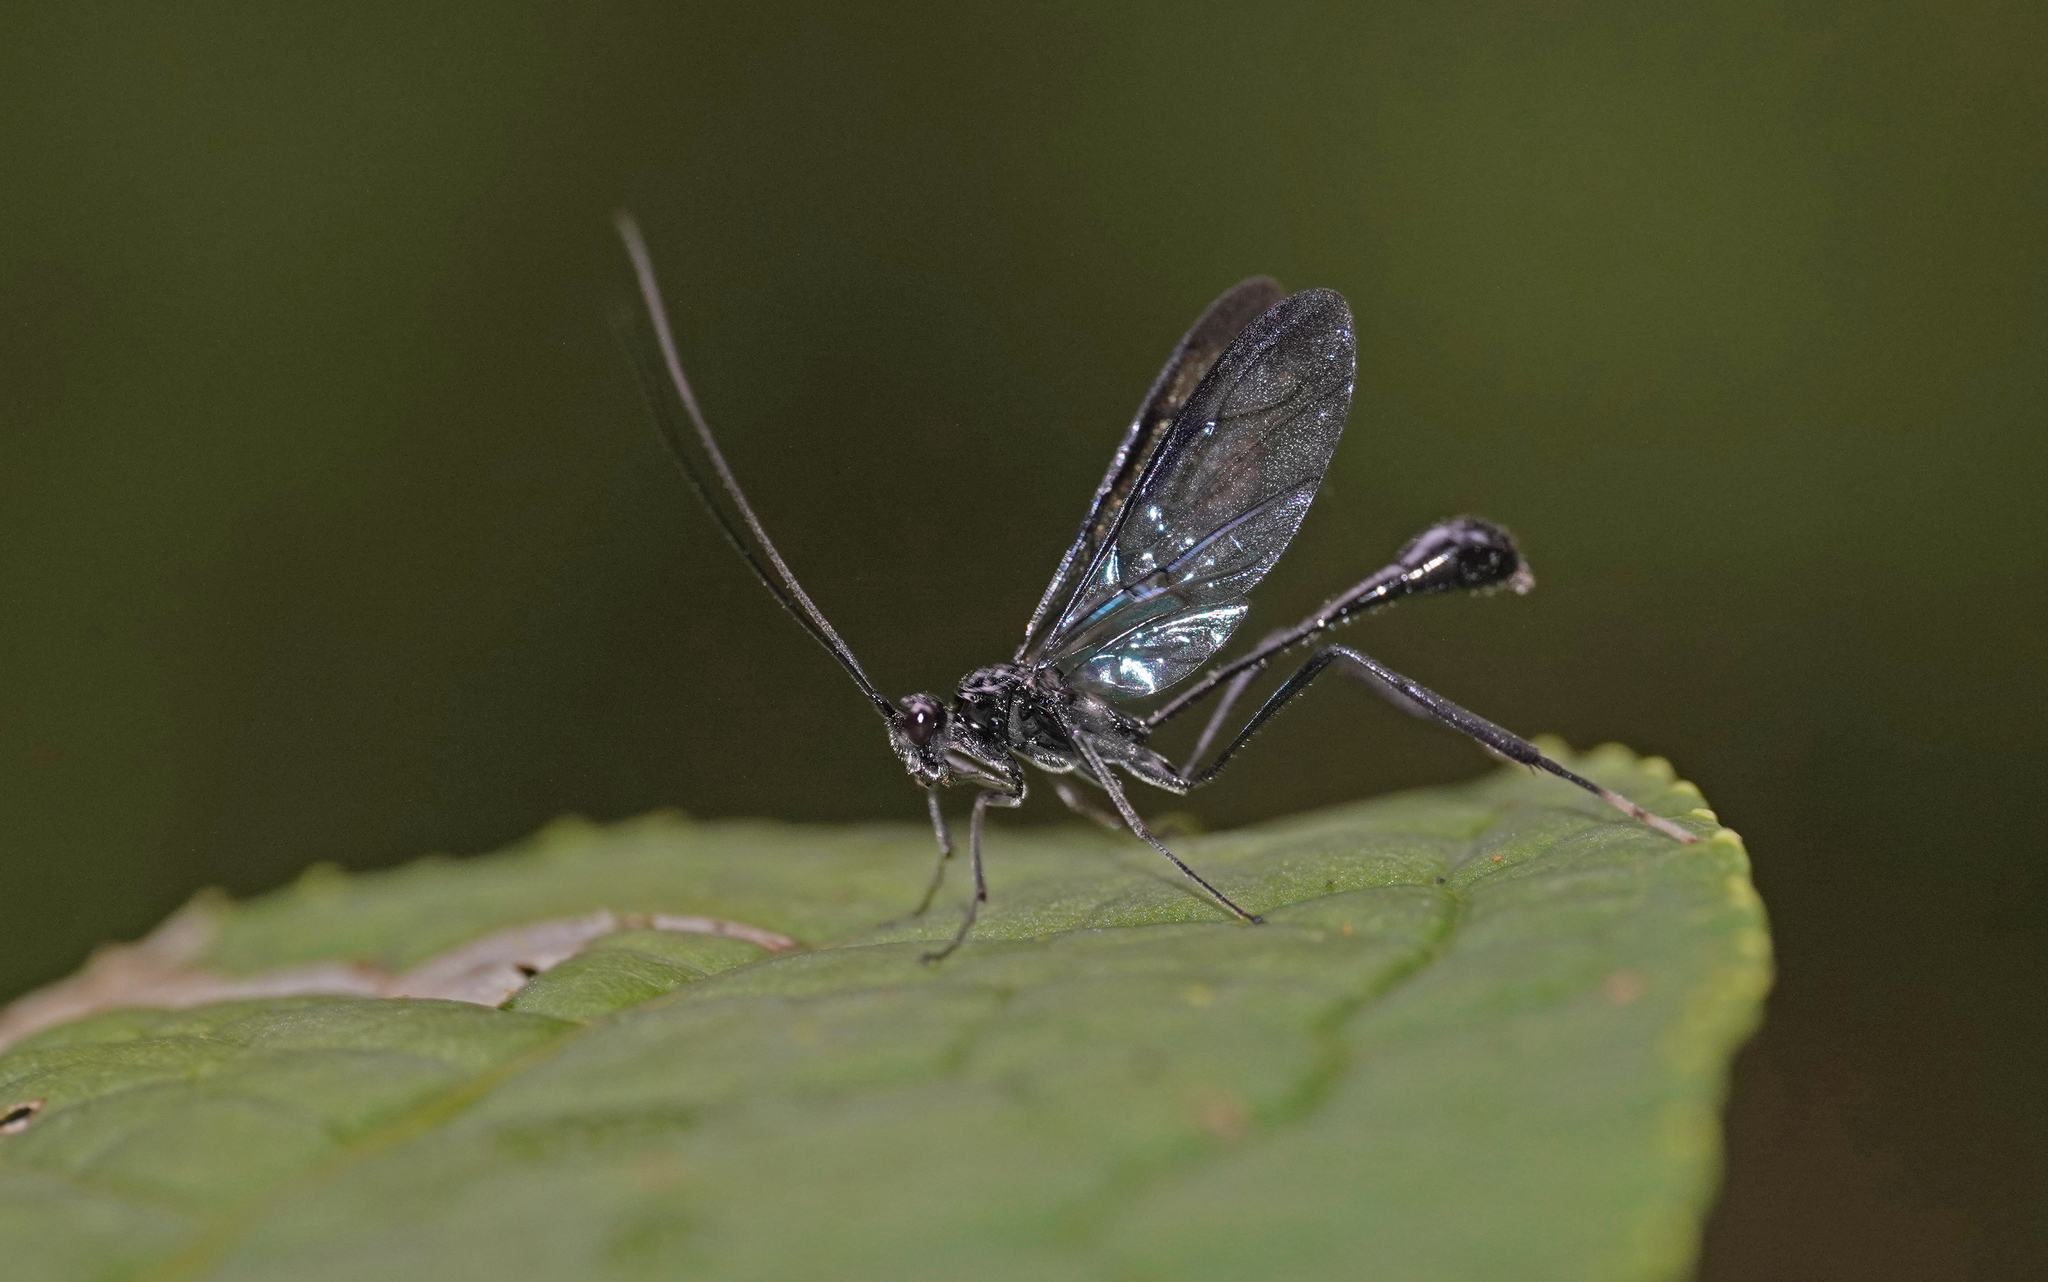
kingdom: Animalia
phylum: Arthropoda
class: Insecta
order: Hymenoptera
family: Pelecinidae
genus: Pelecinus
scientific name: Pelecinus polyturator
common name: American pelecinid wasp
